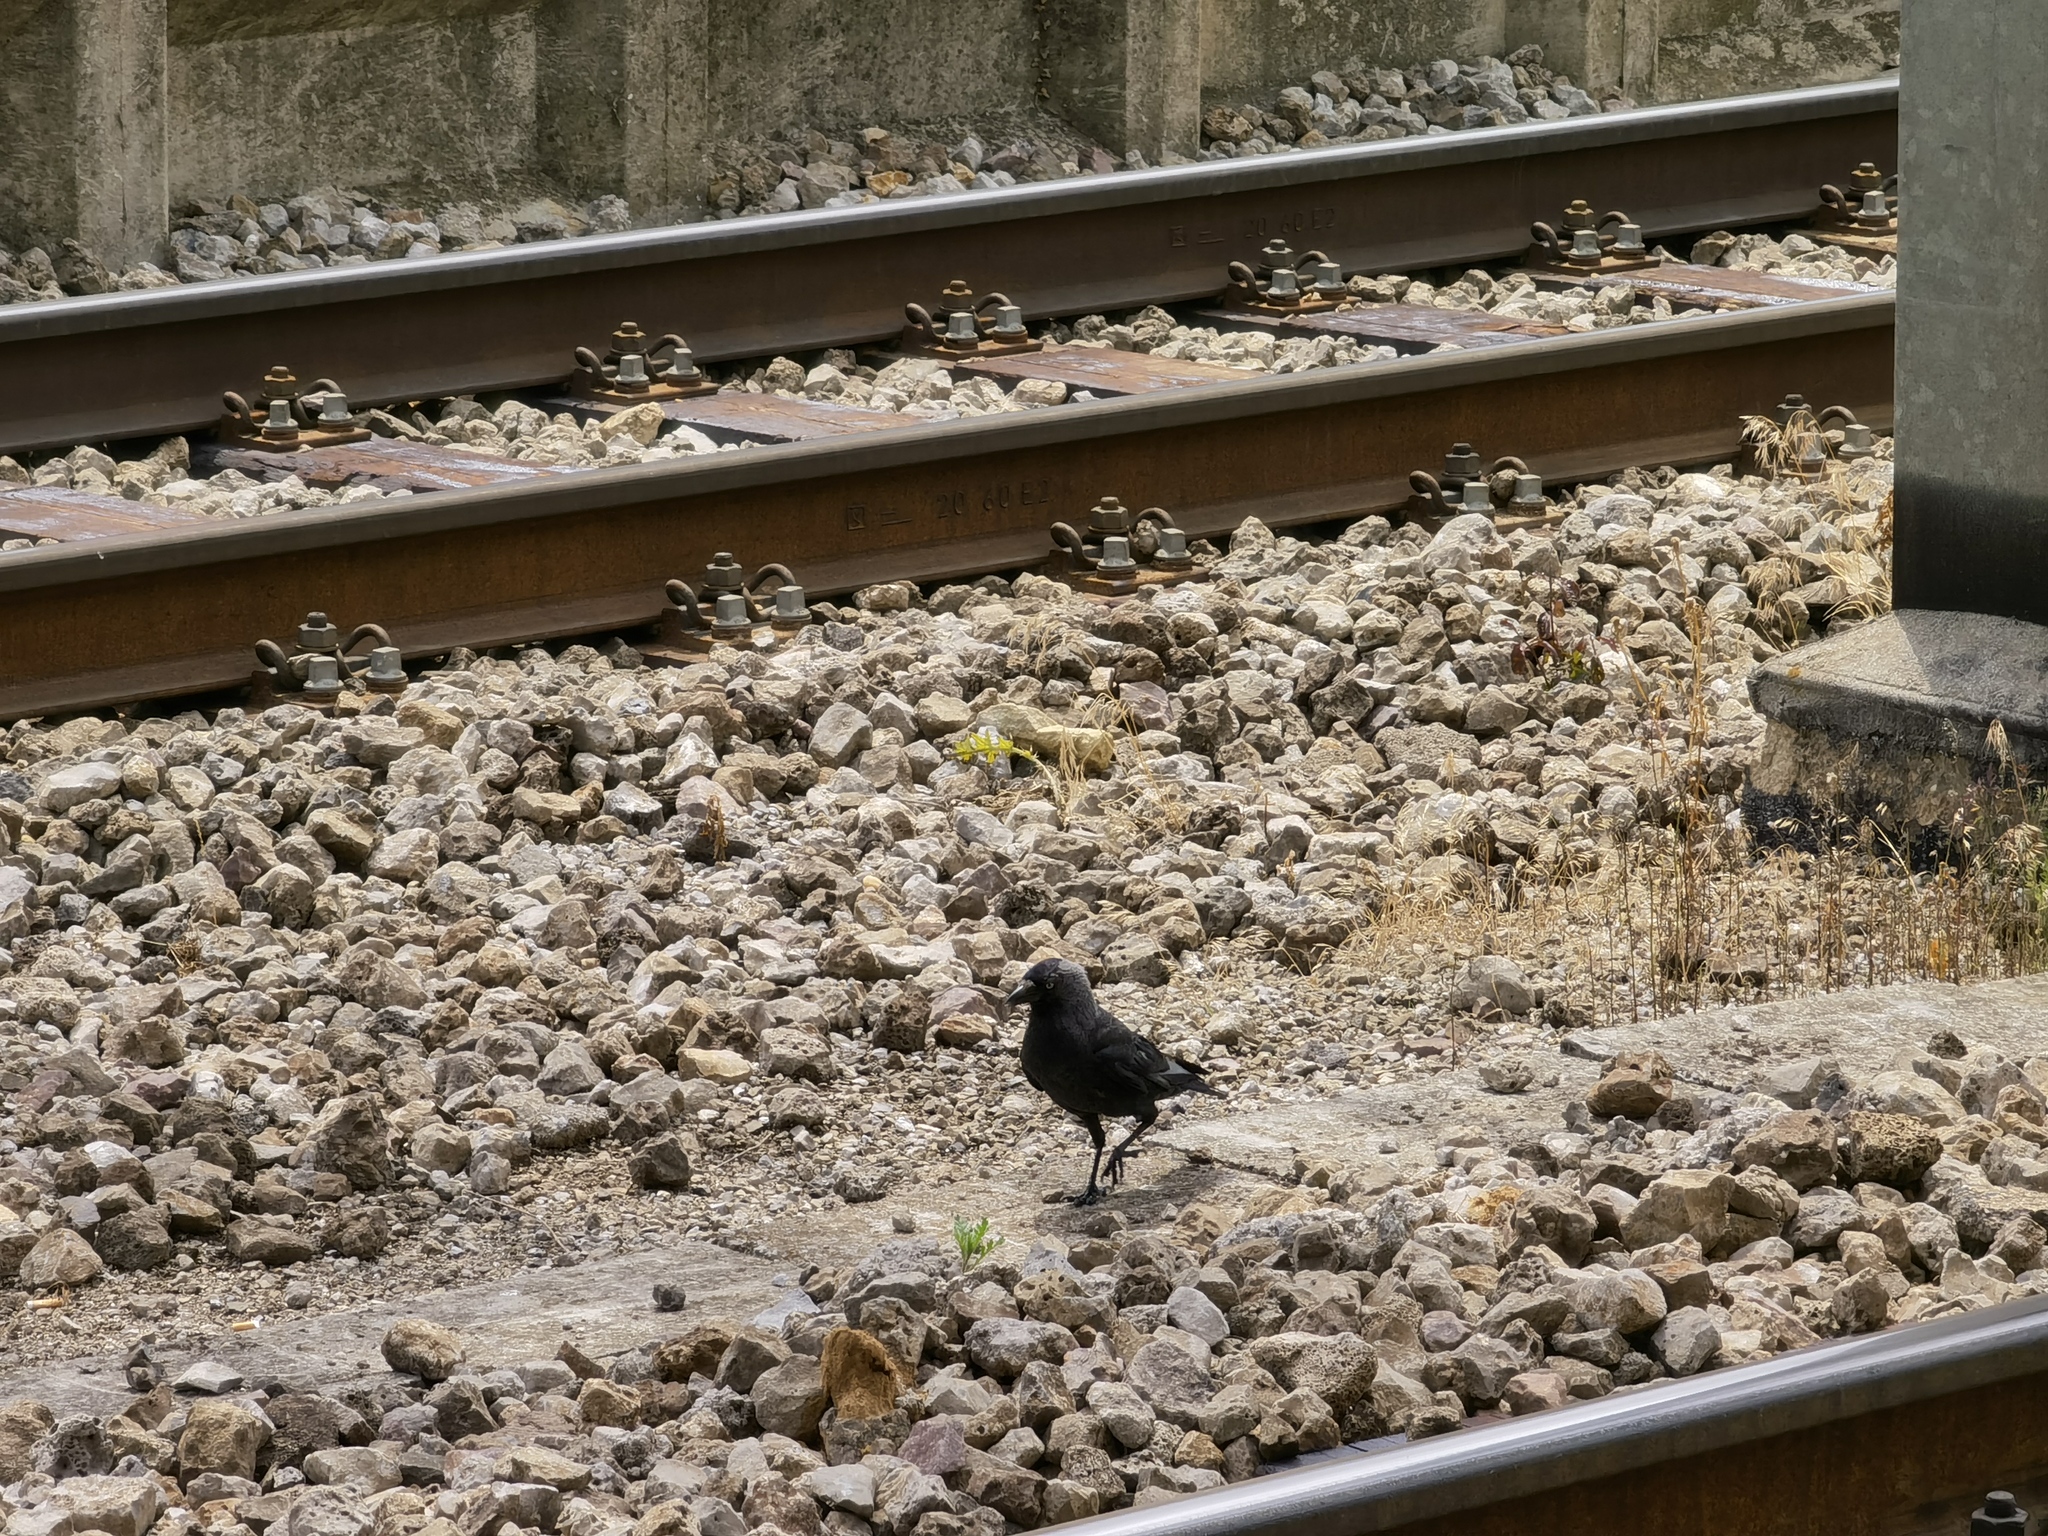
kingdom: Animalia
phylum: Chordata
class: Aves
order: Passeriformes
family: Corvidae
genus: Coloeus
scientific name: Coloeus monedula
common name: Western jackdaw
